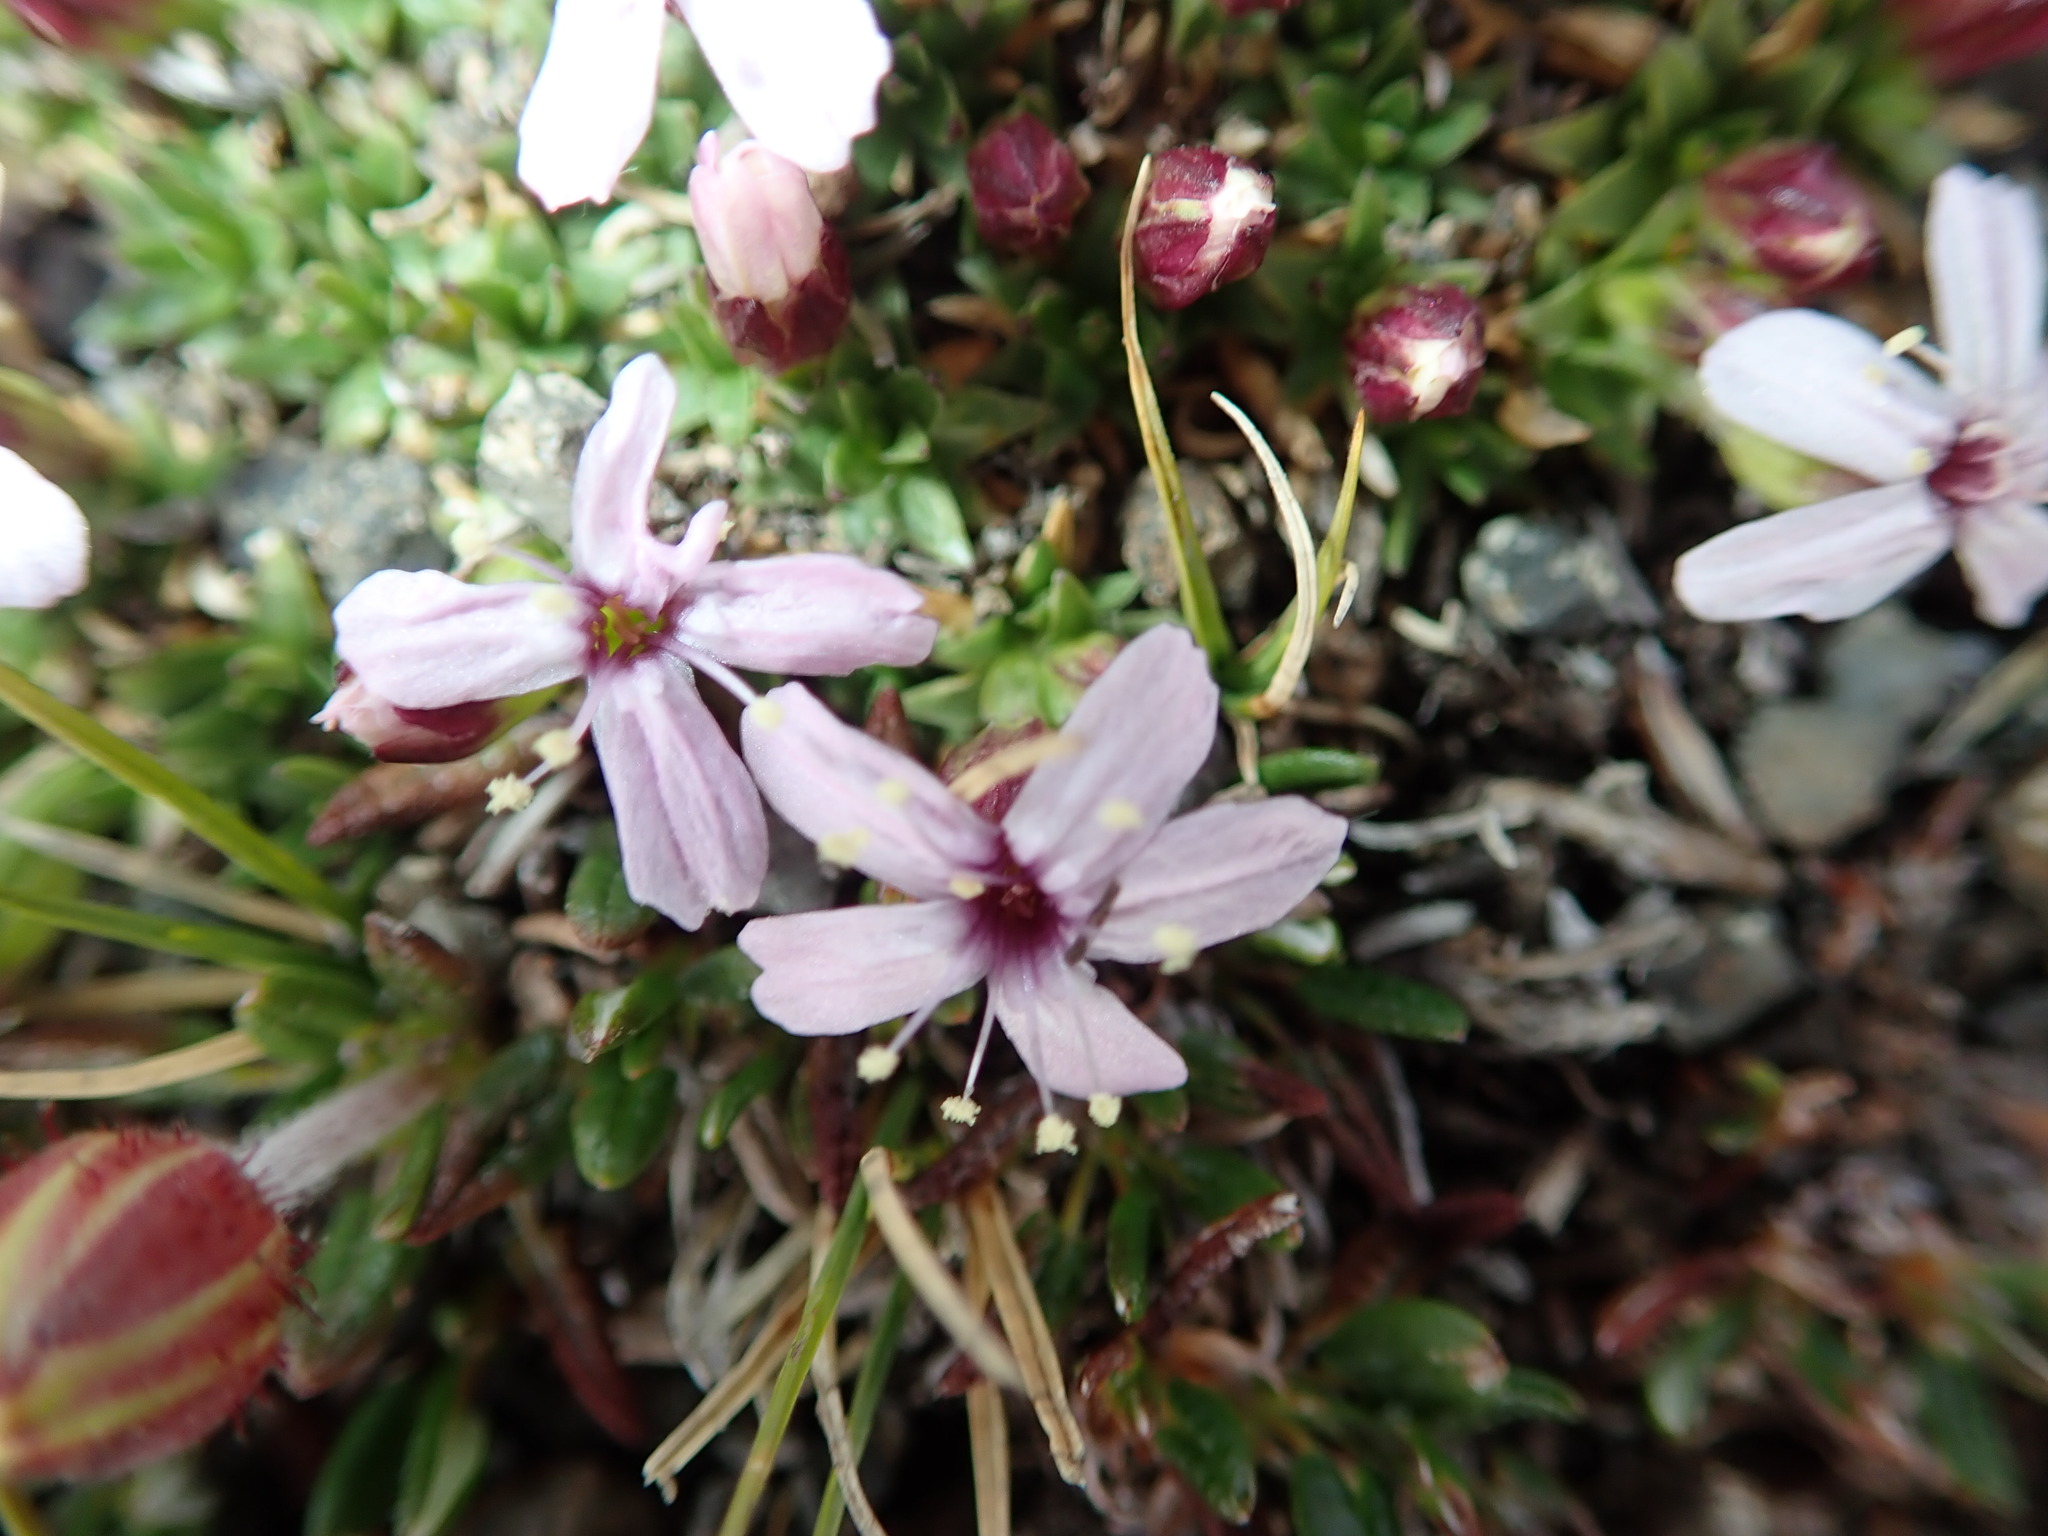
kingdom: Plantae
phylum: Tracheophyta
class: Magnoliopsida
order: Caryophyllales
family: Caryophyllaceae
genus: Silene
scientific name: Silene acaulis
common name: Moss campion
